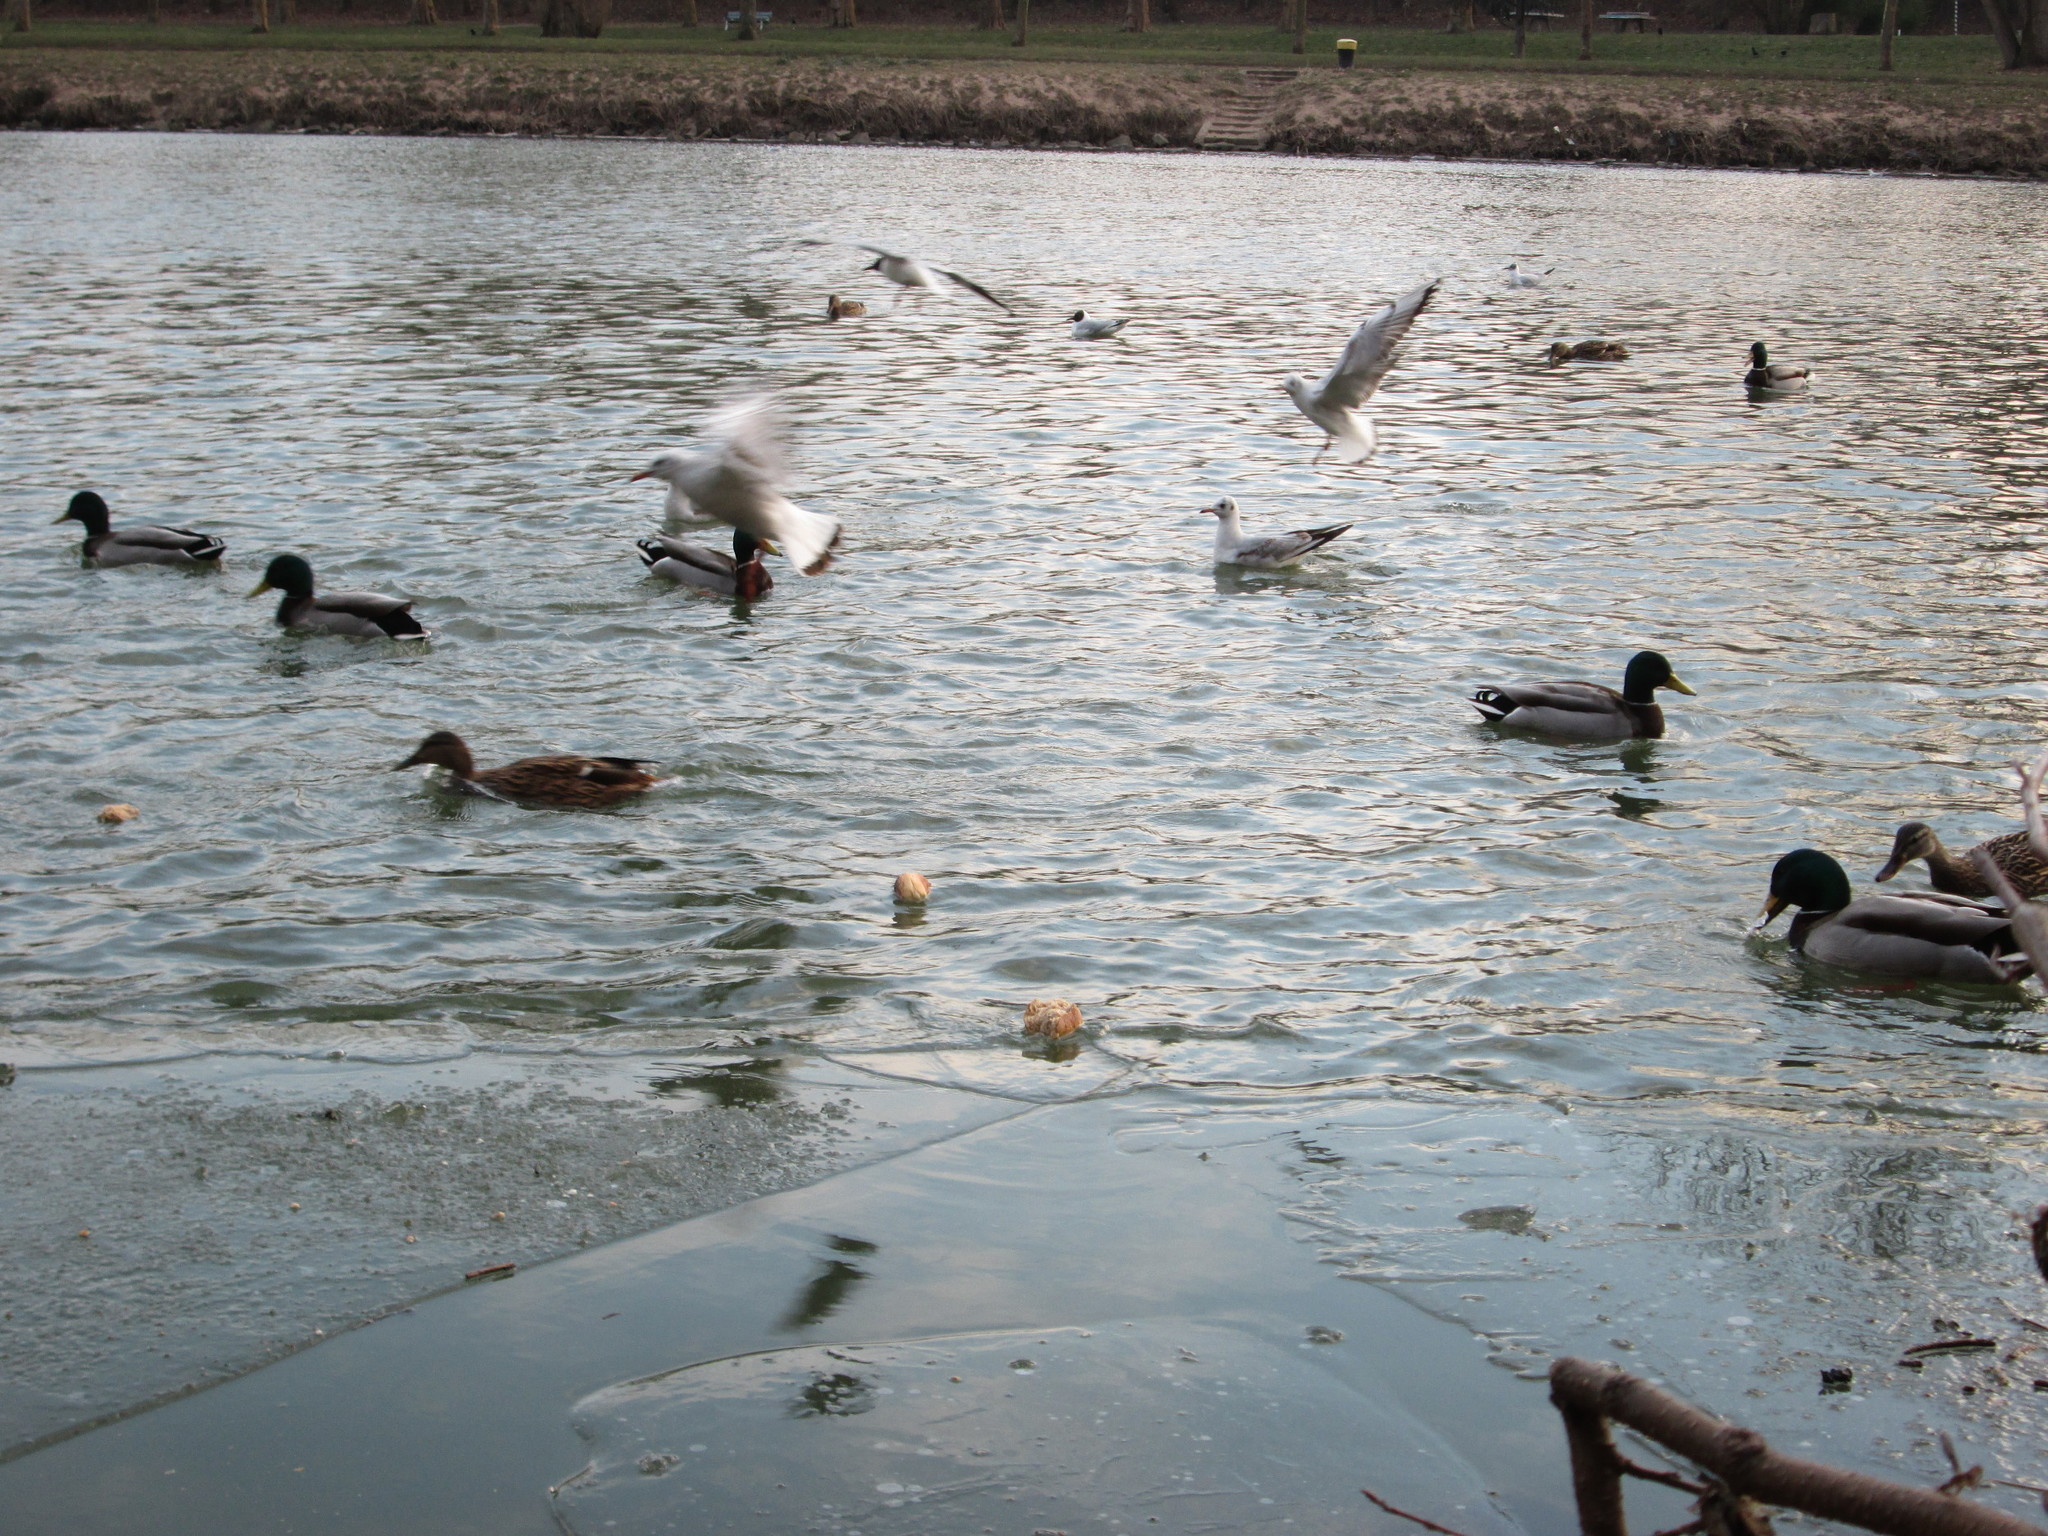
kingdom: Animalia
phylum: Chordata
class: Aves
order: Charadriiformes
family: Laridae
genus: Chroicocephalus
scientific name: Chroicocephalus ridibundus
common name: Black-headed gull
